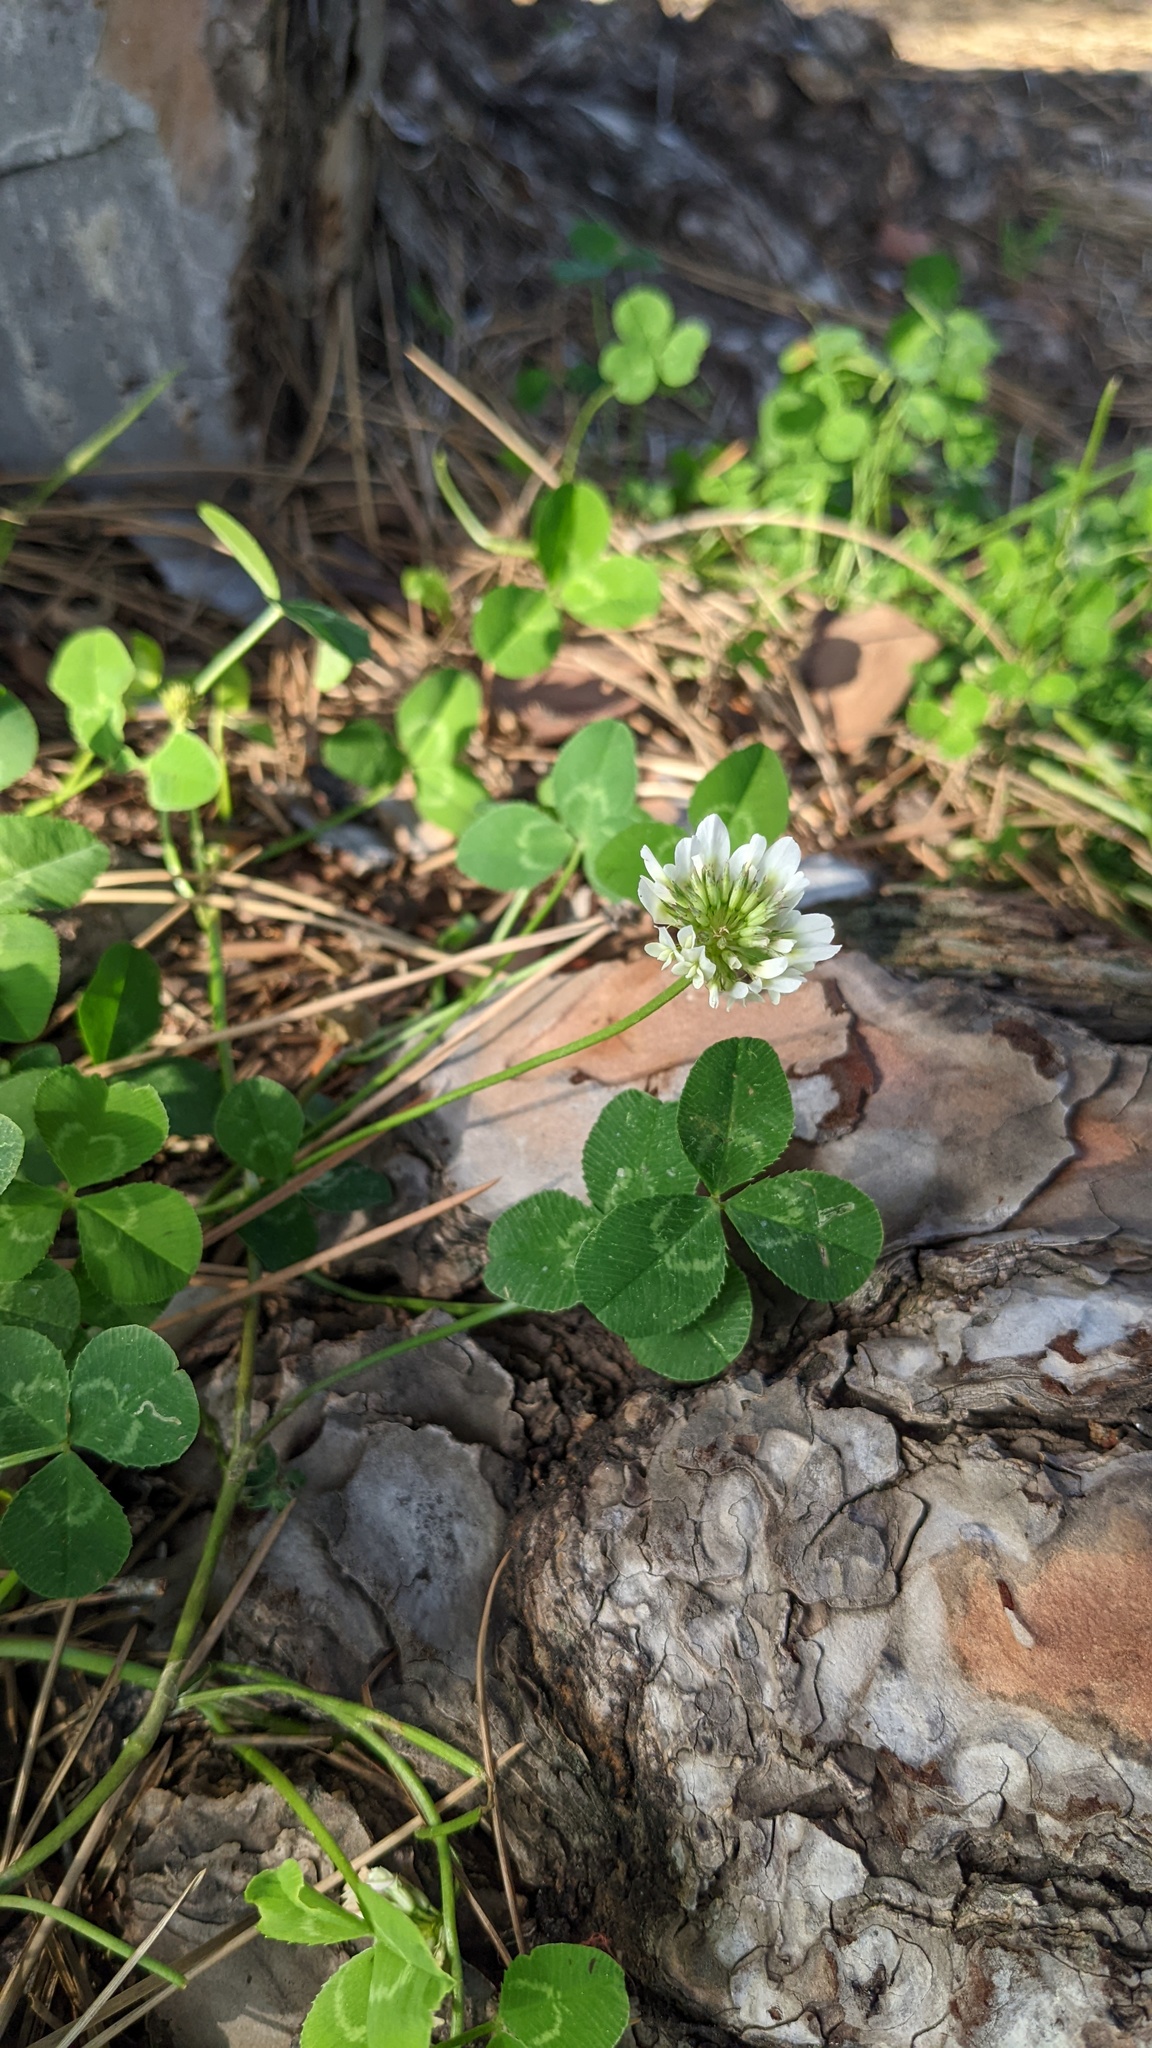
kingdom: Plantae
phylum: Tracheophyta
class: Magnoliopsida
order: Fabales
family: Fabaceae
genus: Trifolium
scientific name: Trifolium repens
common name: White clover
